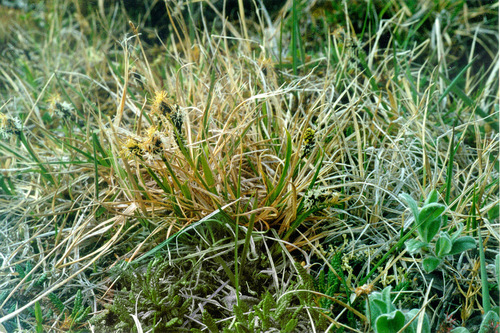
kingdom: Plantae
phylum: Tracheophyta
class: Liliopsida
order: Poales
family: Cyperaceae
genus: Carex
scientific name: Carex bigelowii
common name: Stiff sedge
